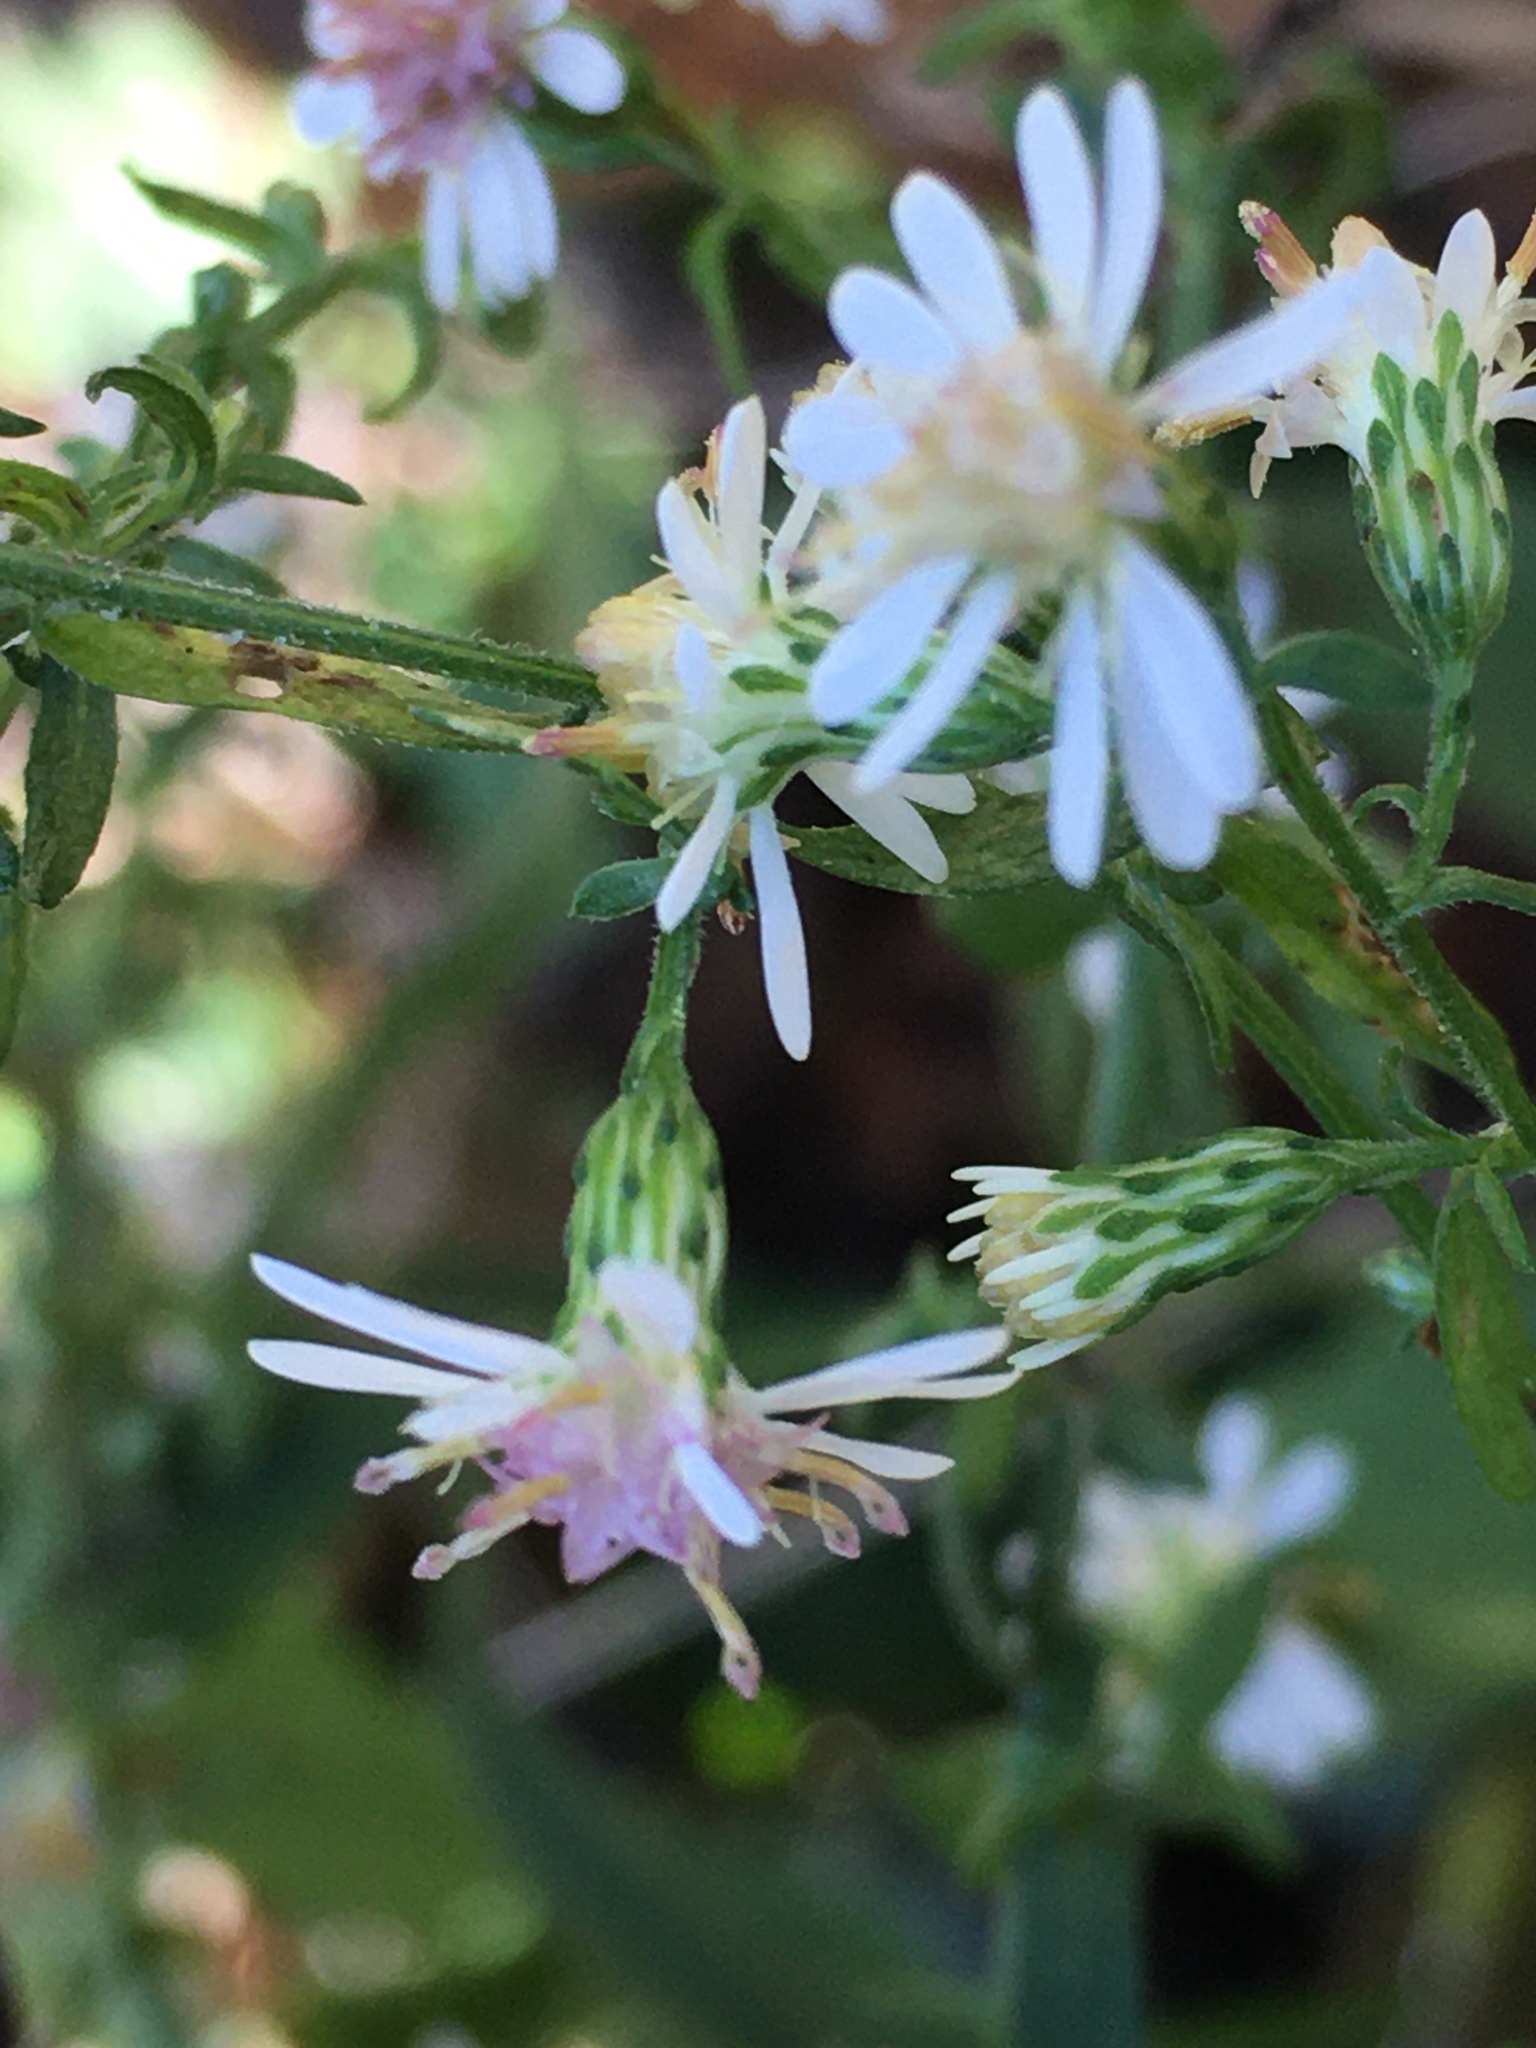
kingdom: Plantae
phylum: Tracheophyta
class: Magnoliopsida
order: Asterales
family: Asteraceae
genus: Symphyotrichum
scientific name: Symphyotrichum lateriflorum
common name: Calico aster
